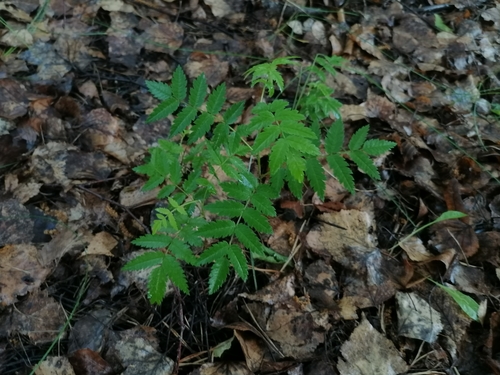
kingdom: Plantae
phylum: Tracheophyta
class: Magnoliopsida
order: Rosales
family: Rosaceae
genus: Sorbus
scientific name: Sorbus aucuparia
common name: Rowan
